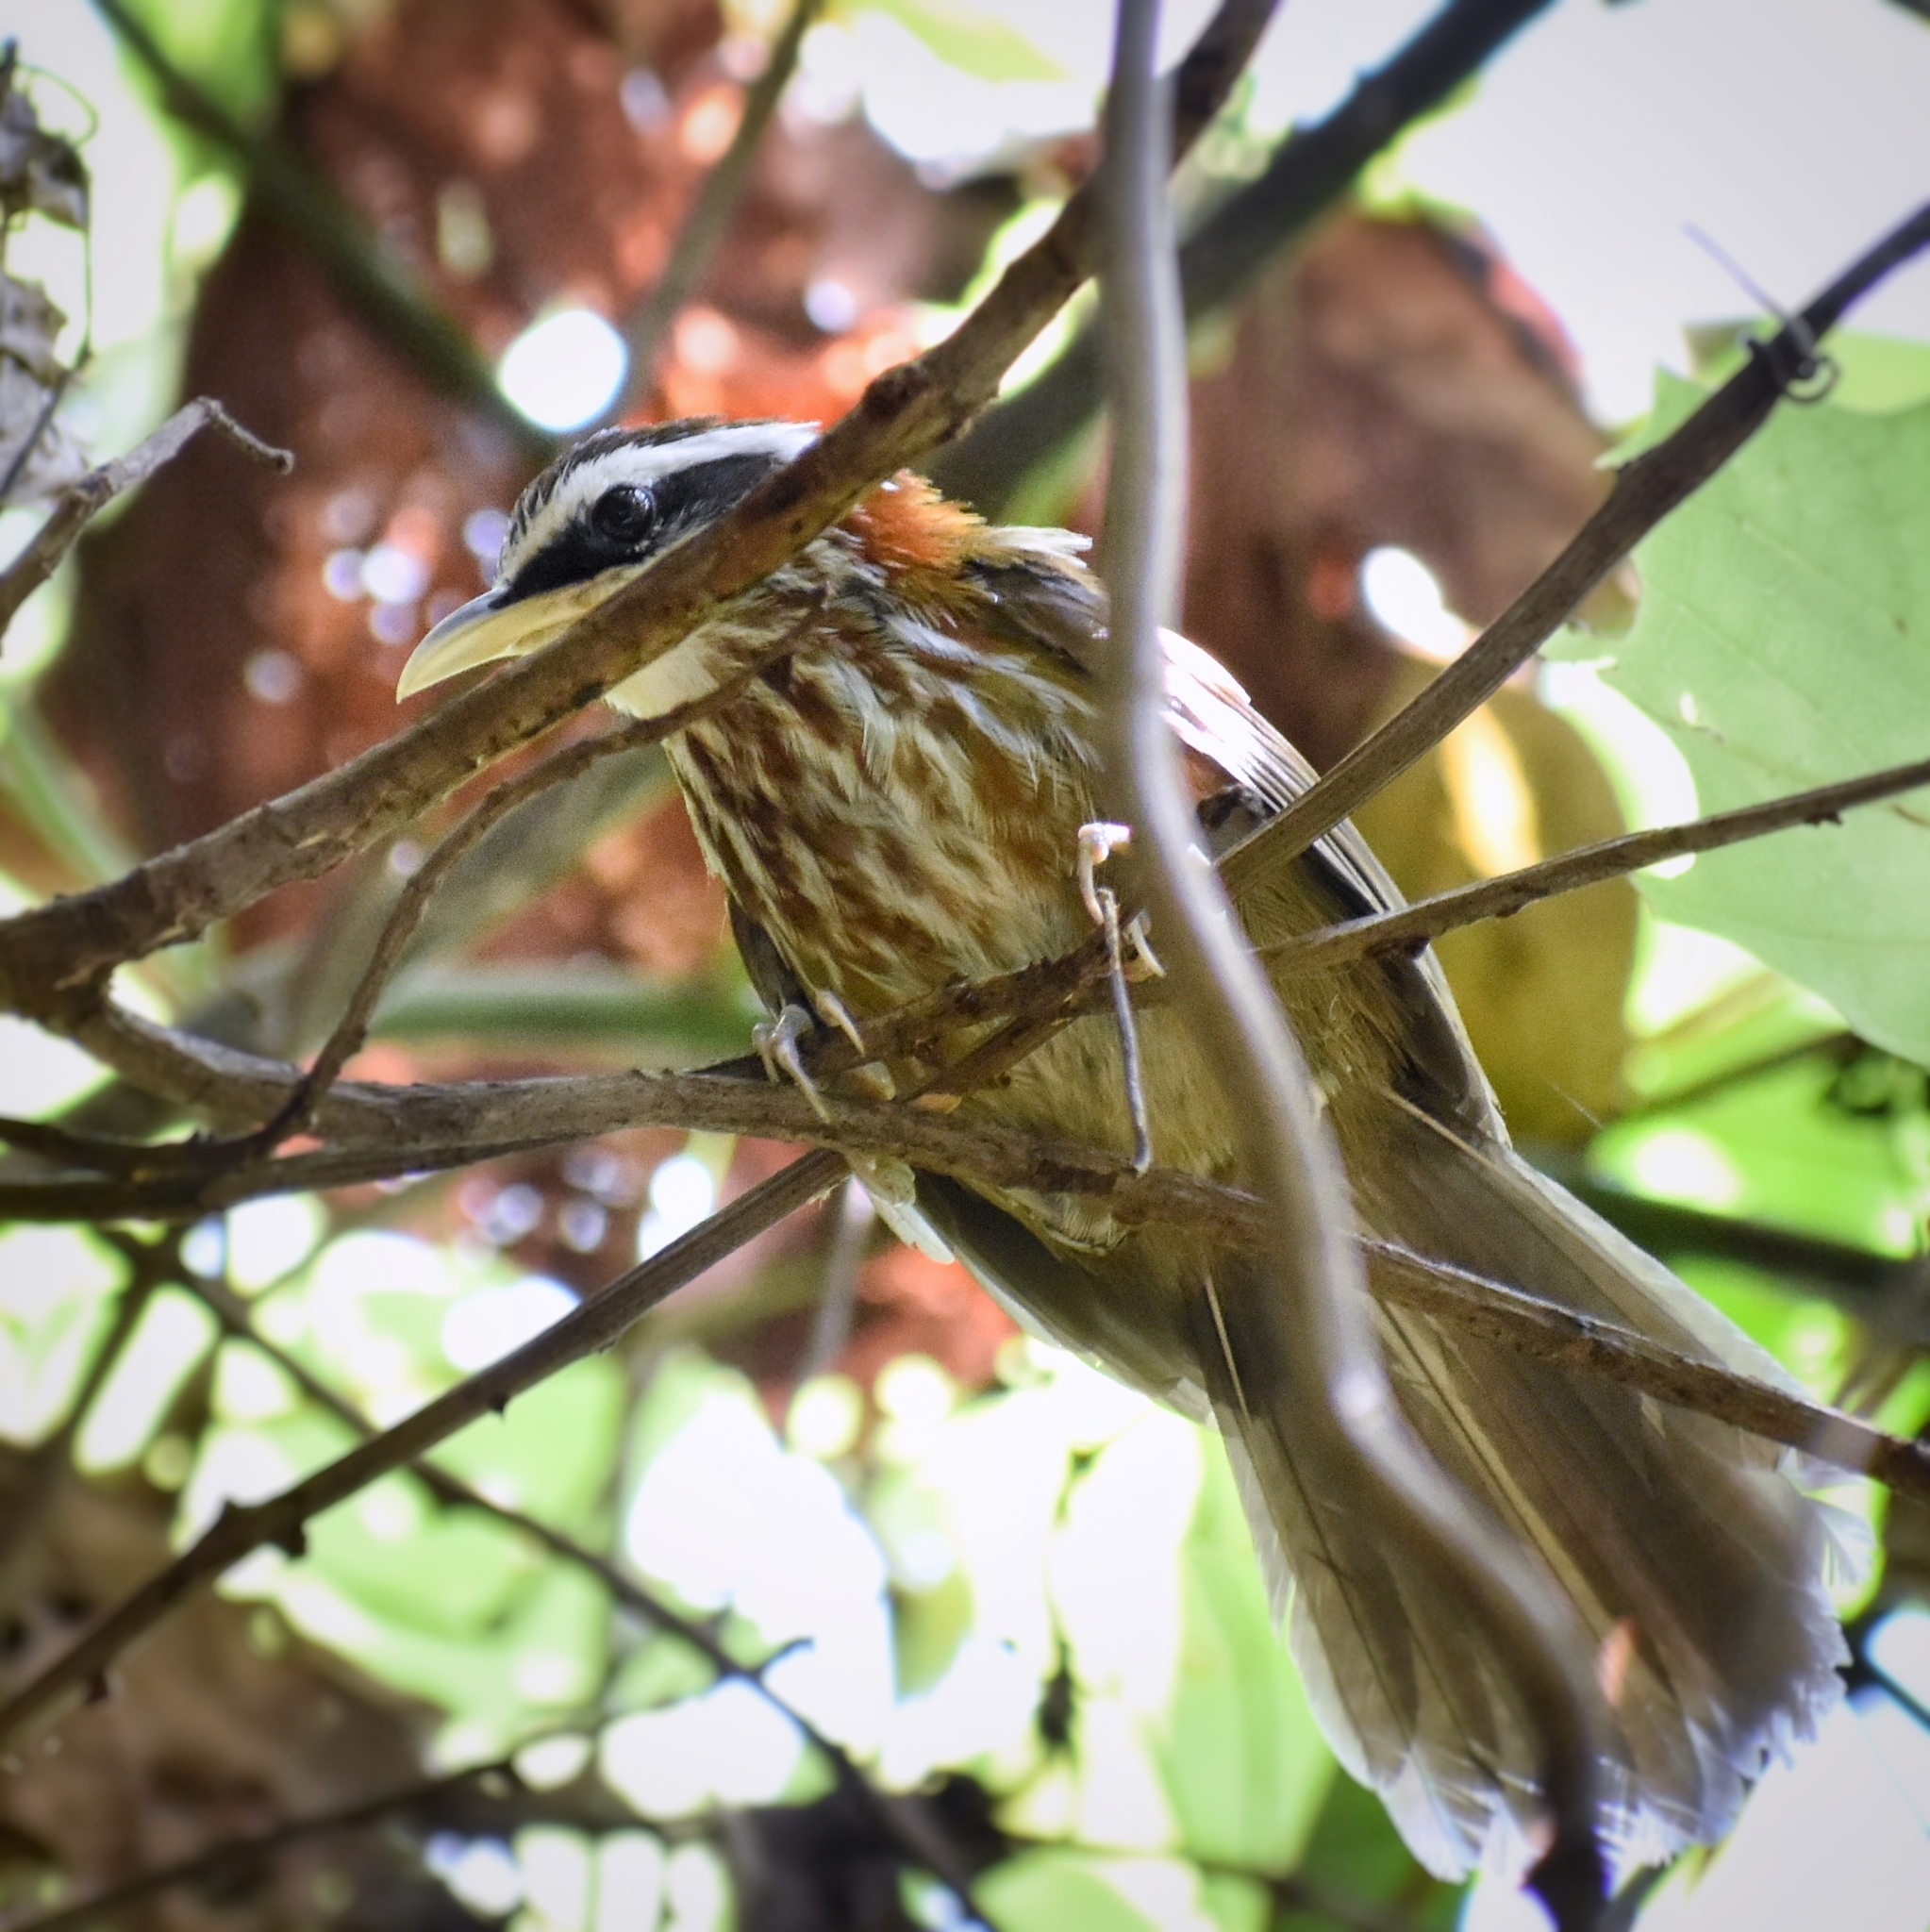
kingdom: Animalia
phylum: Chordata
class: Aves
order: Passeriformes
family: Timaliidae
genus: Pomatorhinus
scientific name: Pomatorhinus ruficollis
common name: Streak-breasted scimitar babbler
